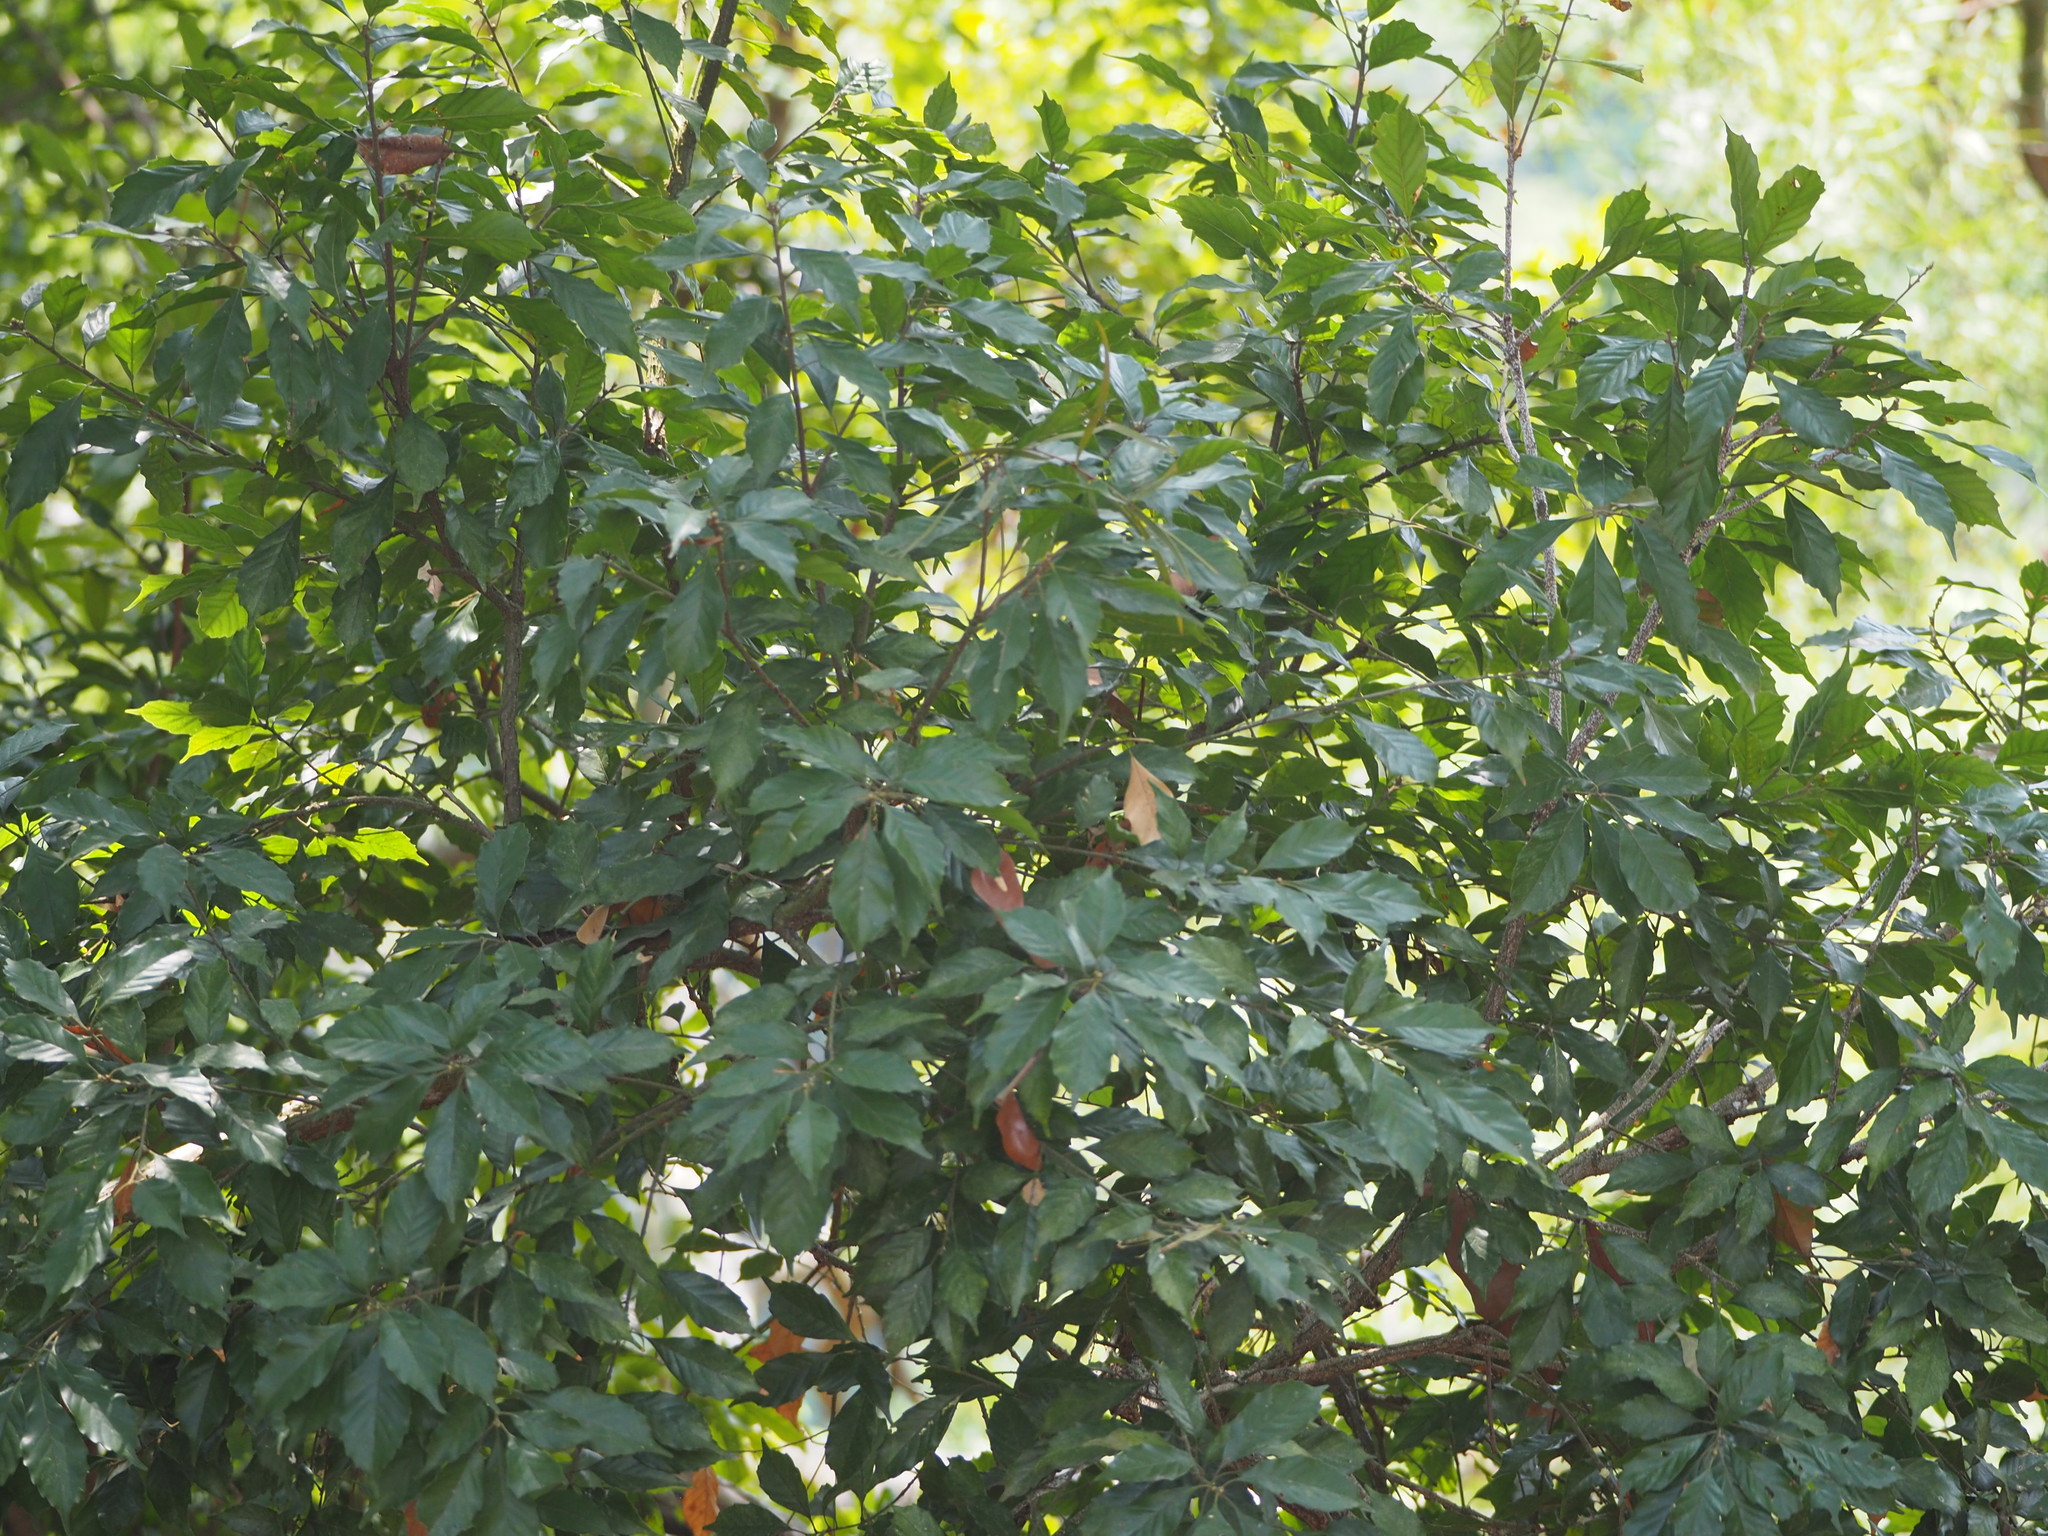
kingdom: Plantae
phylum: Tracheophyta
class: Magnoliopsida
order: Fagales
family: Fagaceae
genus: Lithocarpus
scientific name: Lithocarpus konishii
